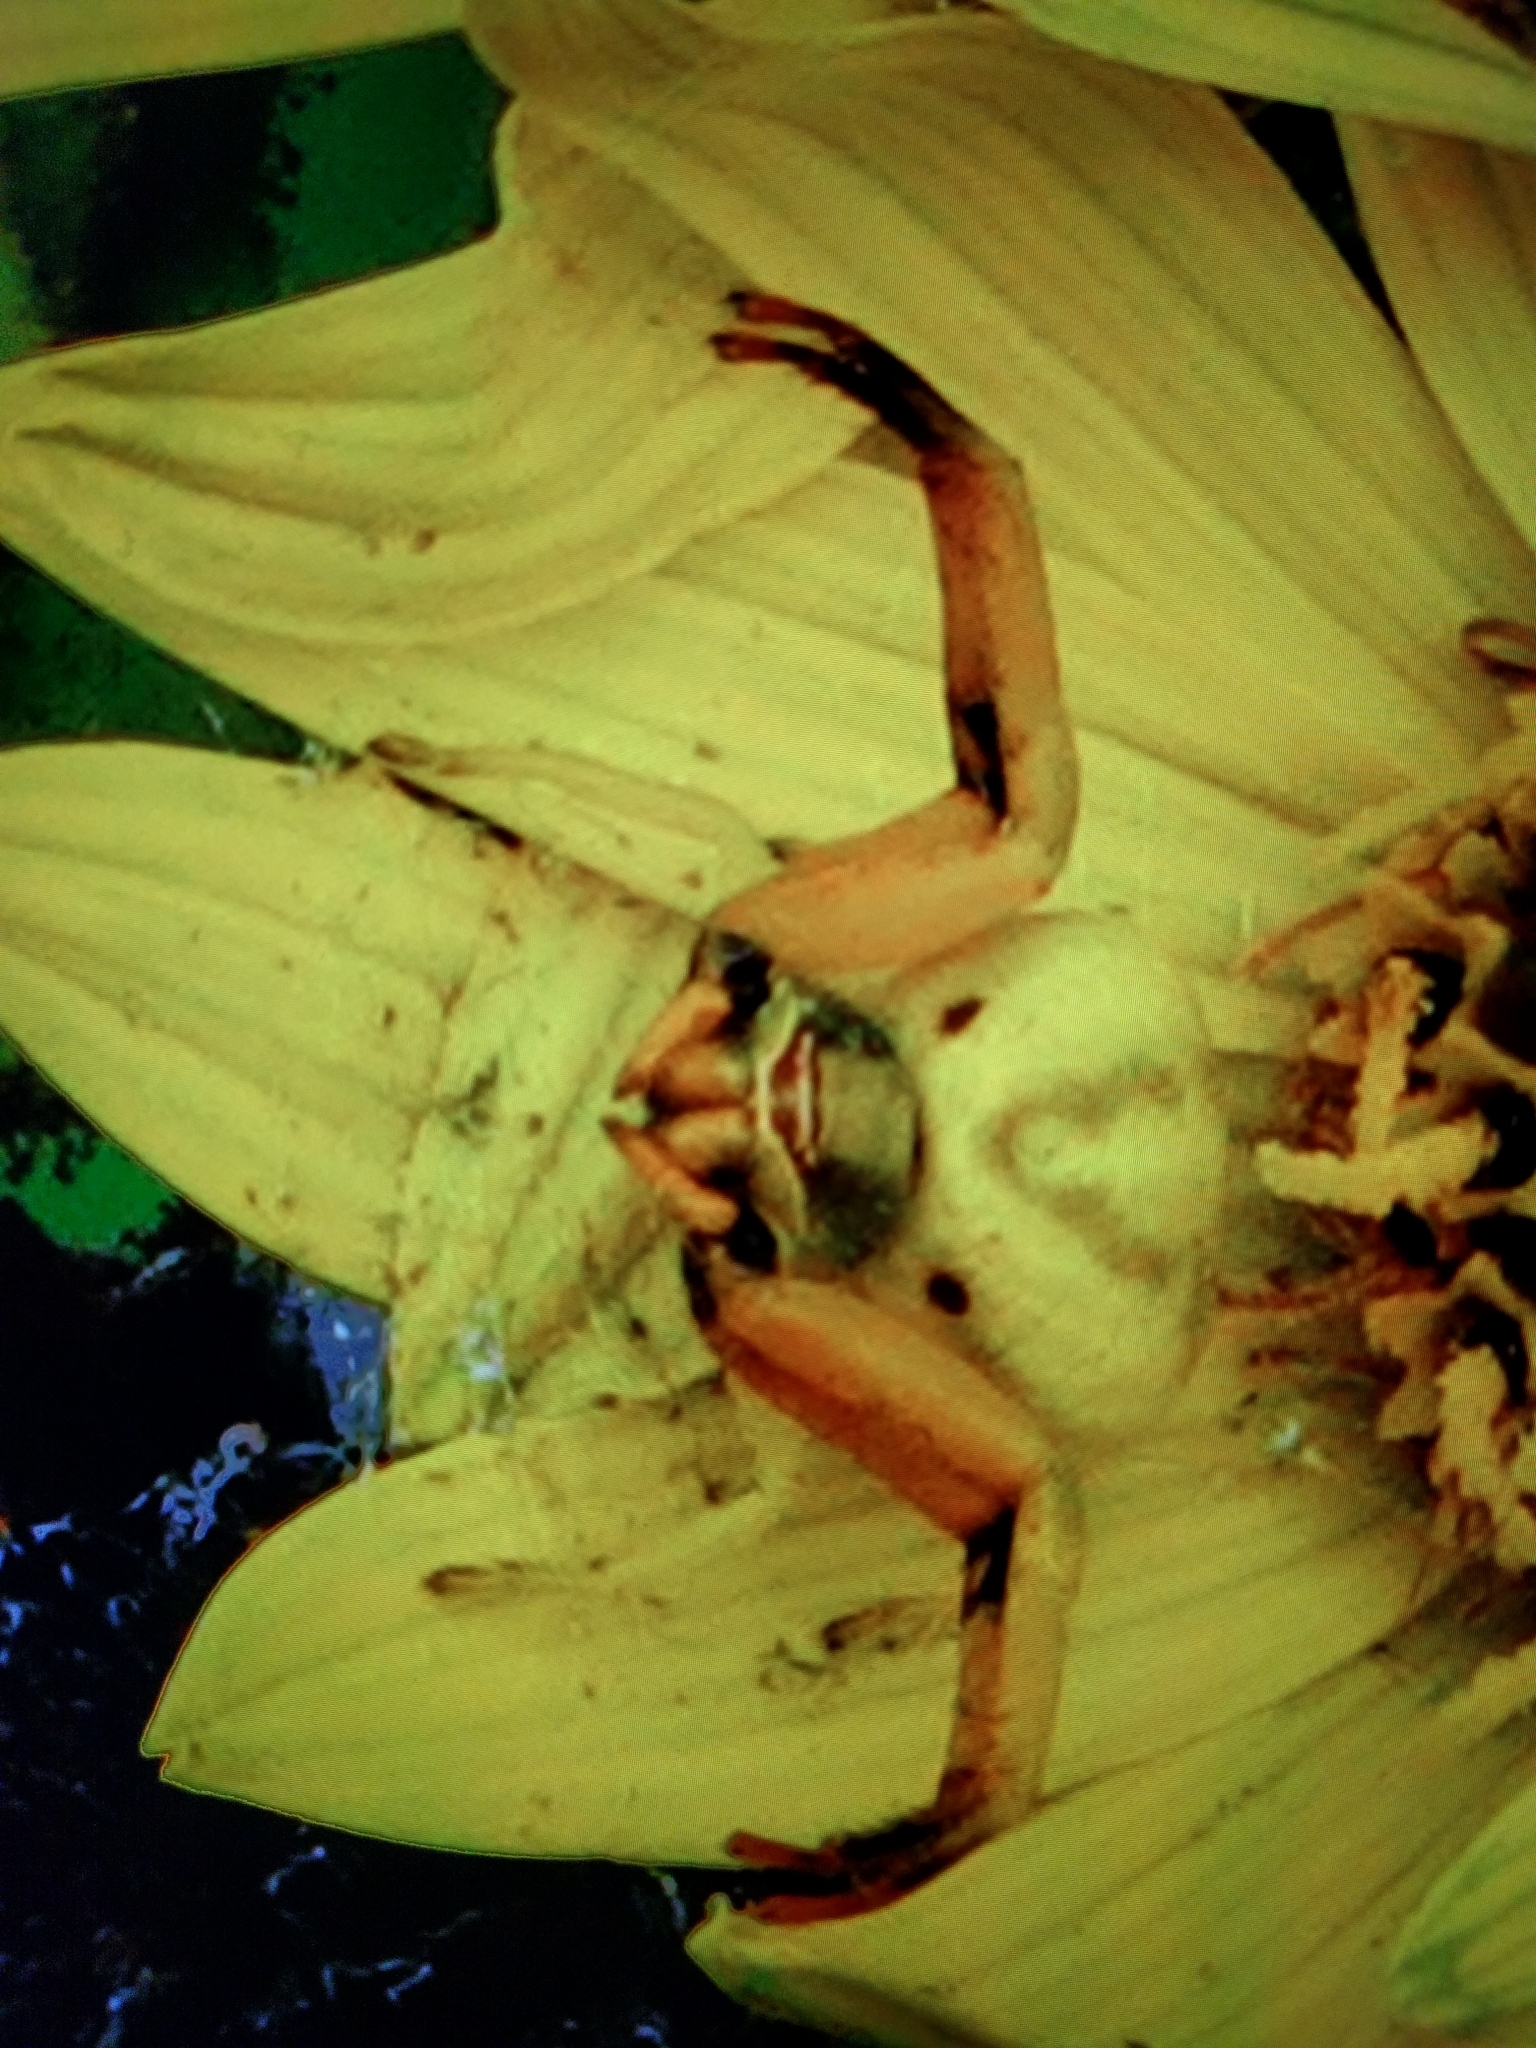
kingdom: Animalia
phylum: Arthropoda
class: Arachnida
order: Araneae
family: Thomisidae
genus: Misumenoides
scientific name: Misumenoides formosipes
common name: White-banded crab spider
